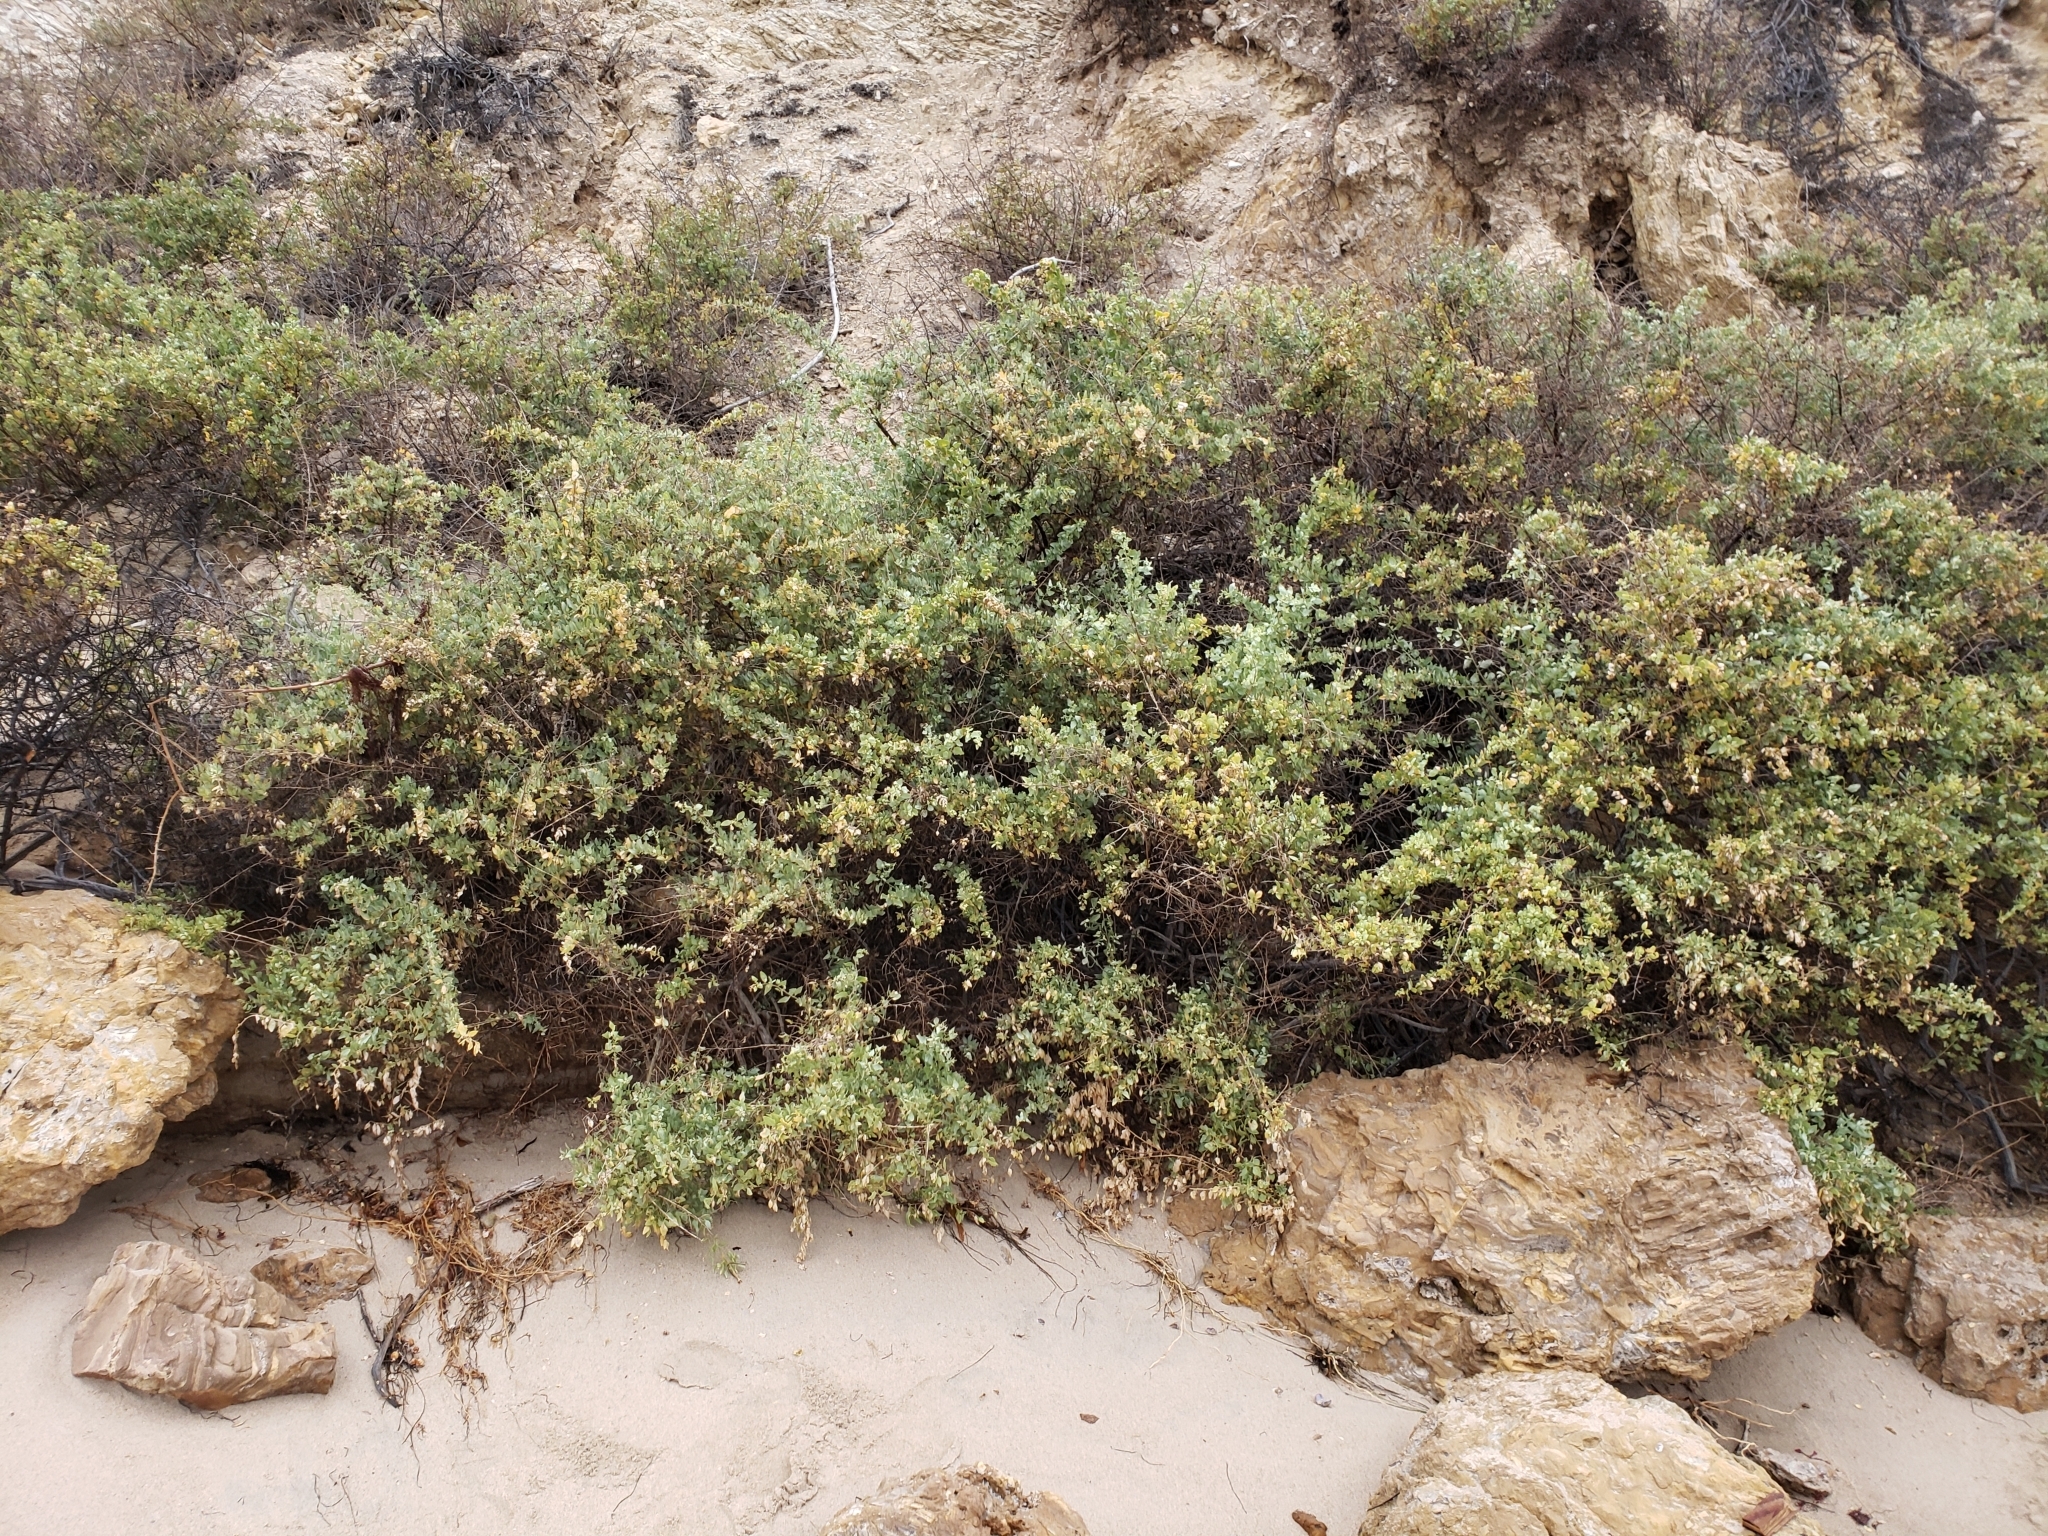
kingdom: Plantae
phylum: Tracheophyta
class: Magnoliopsida
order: Caryophyllales
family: Amaranthaceae
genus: Atriplex
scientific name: Atriplex lentiformis
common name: Big saltbush
